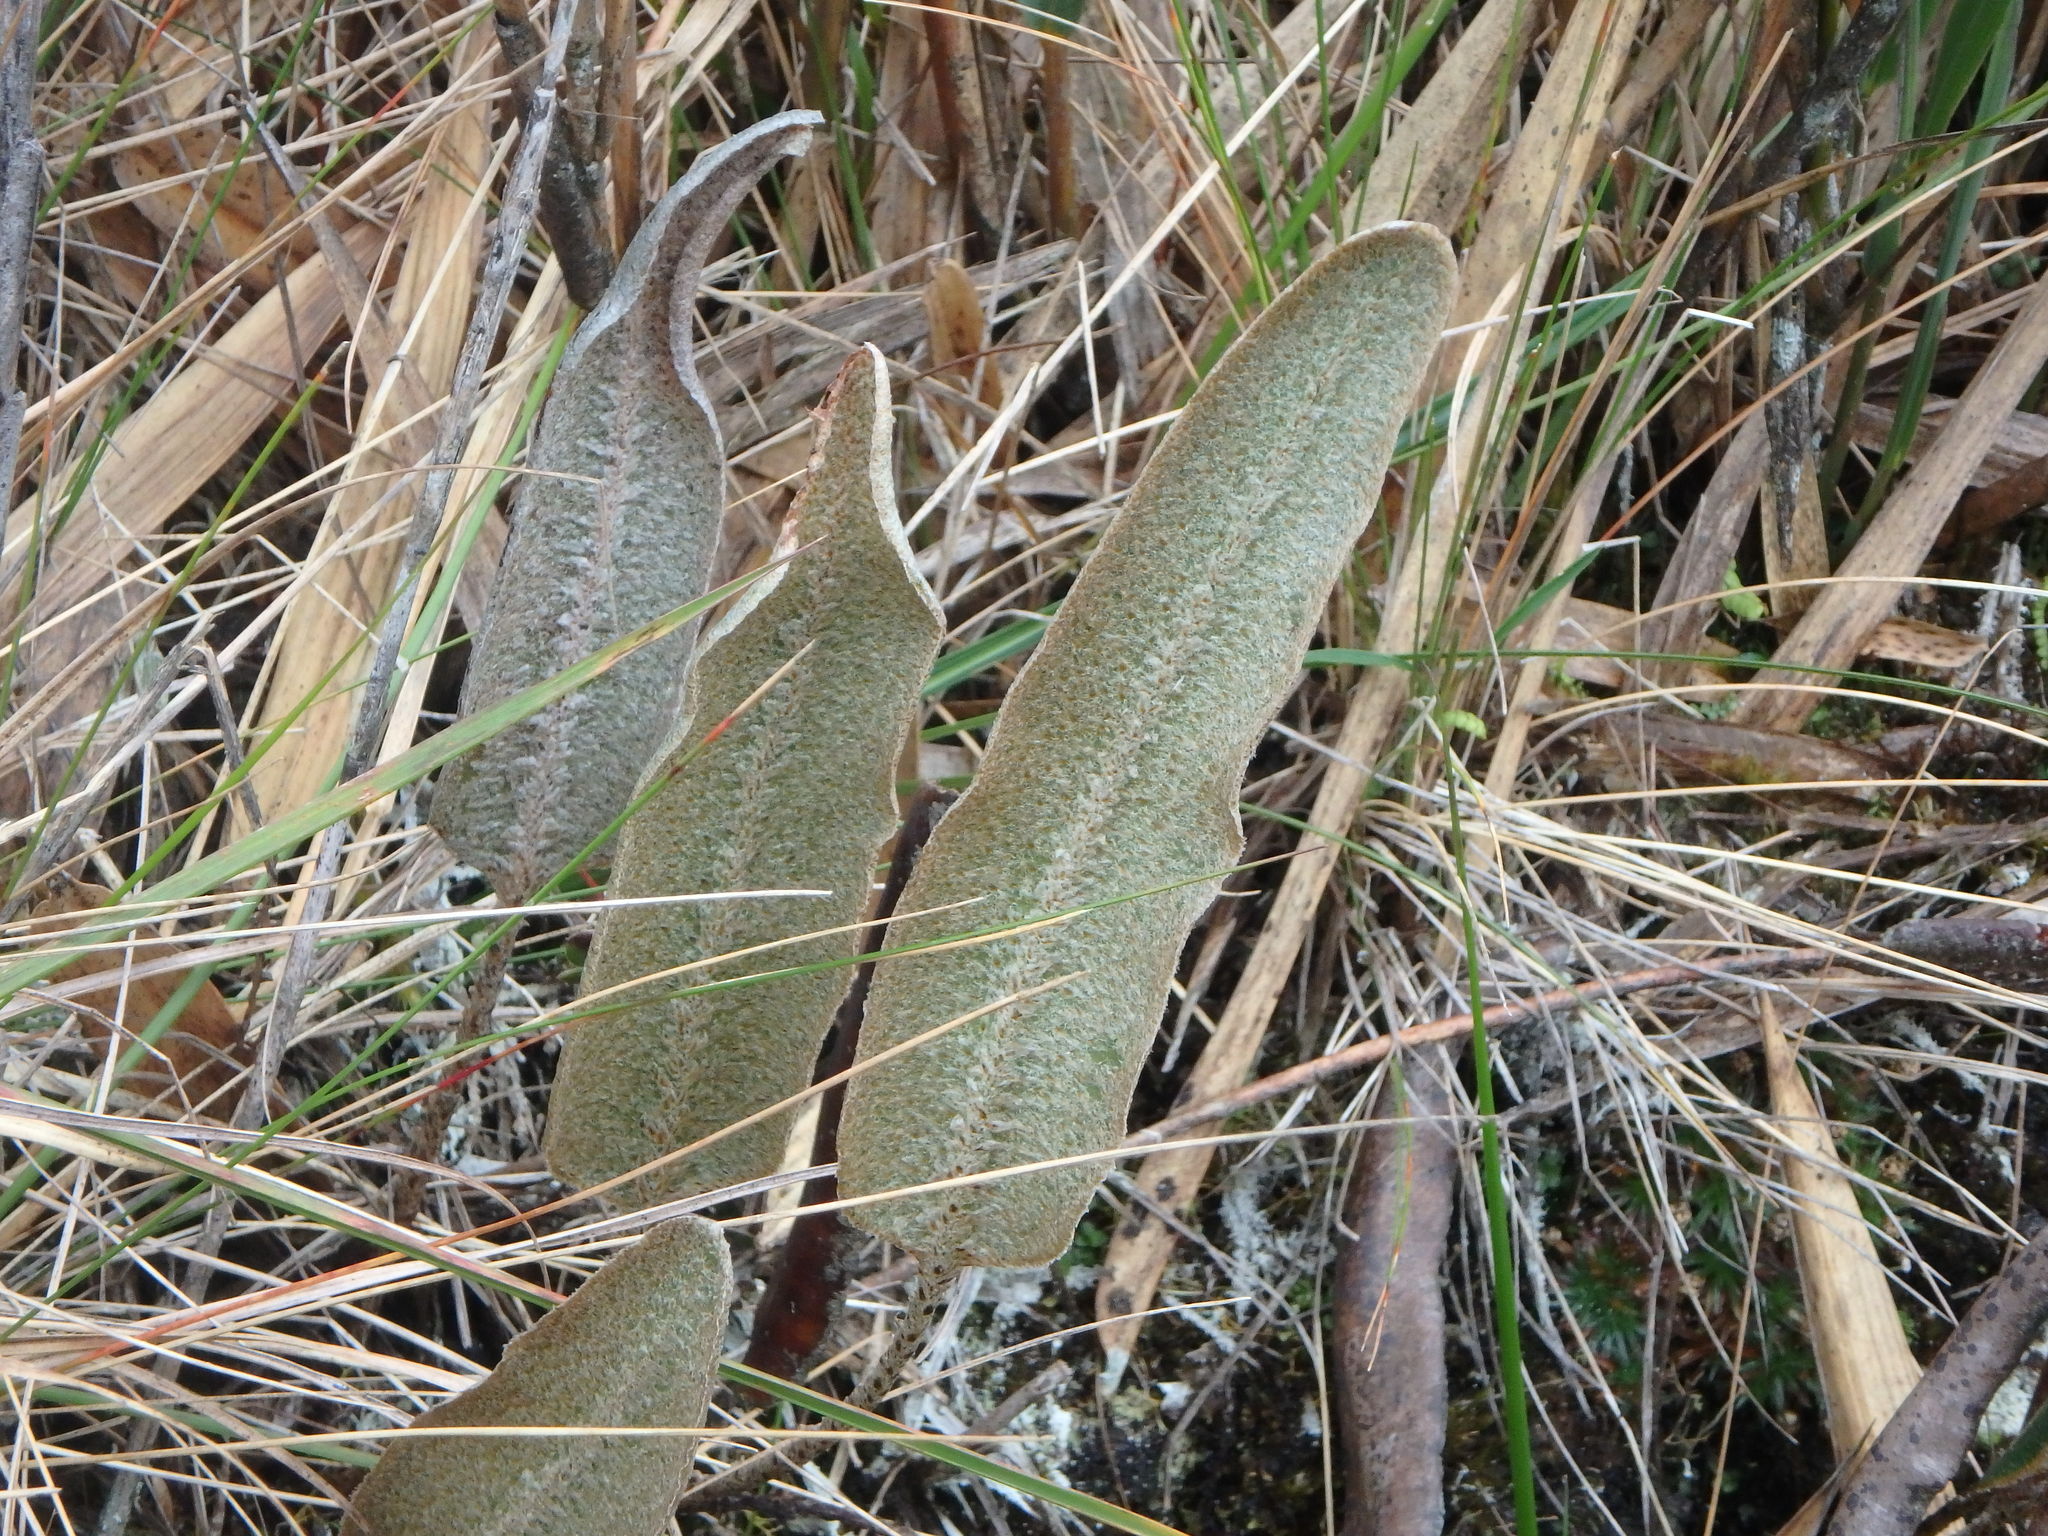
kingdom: Plantae
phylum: Tracheophyta
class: Polypodiopsida
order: Polypodiales
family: Dryopteridaceae
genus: Elaphoglossum
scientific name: Elaphoglossum engelii
